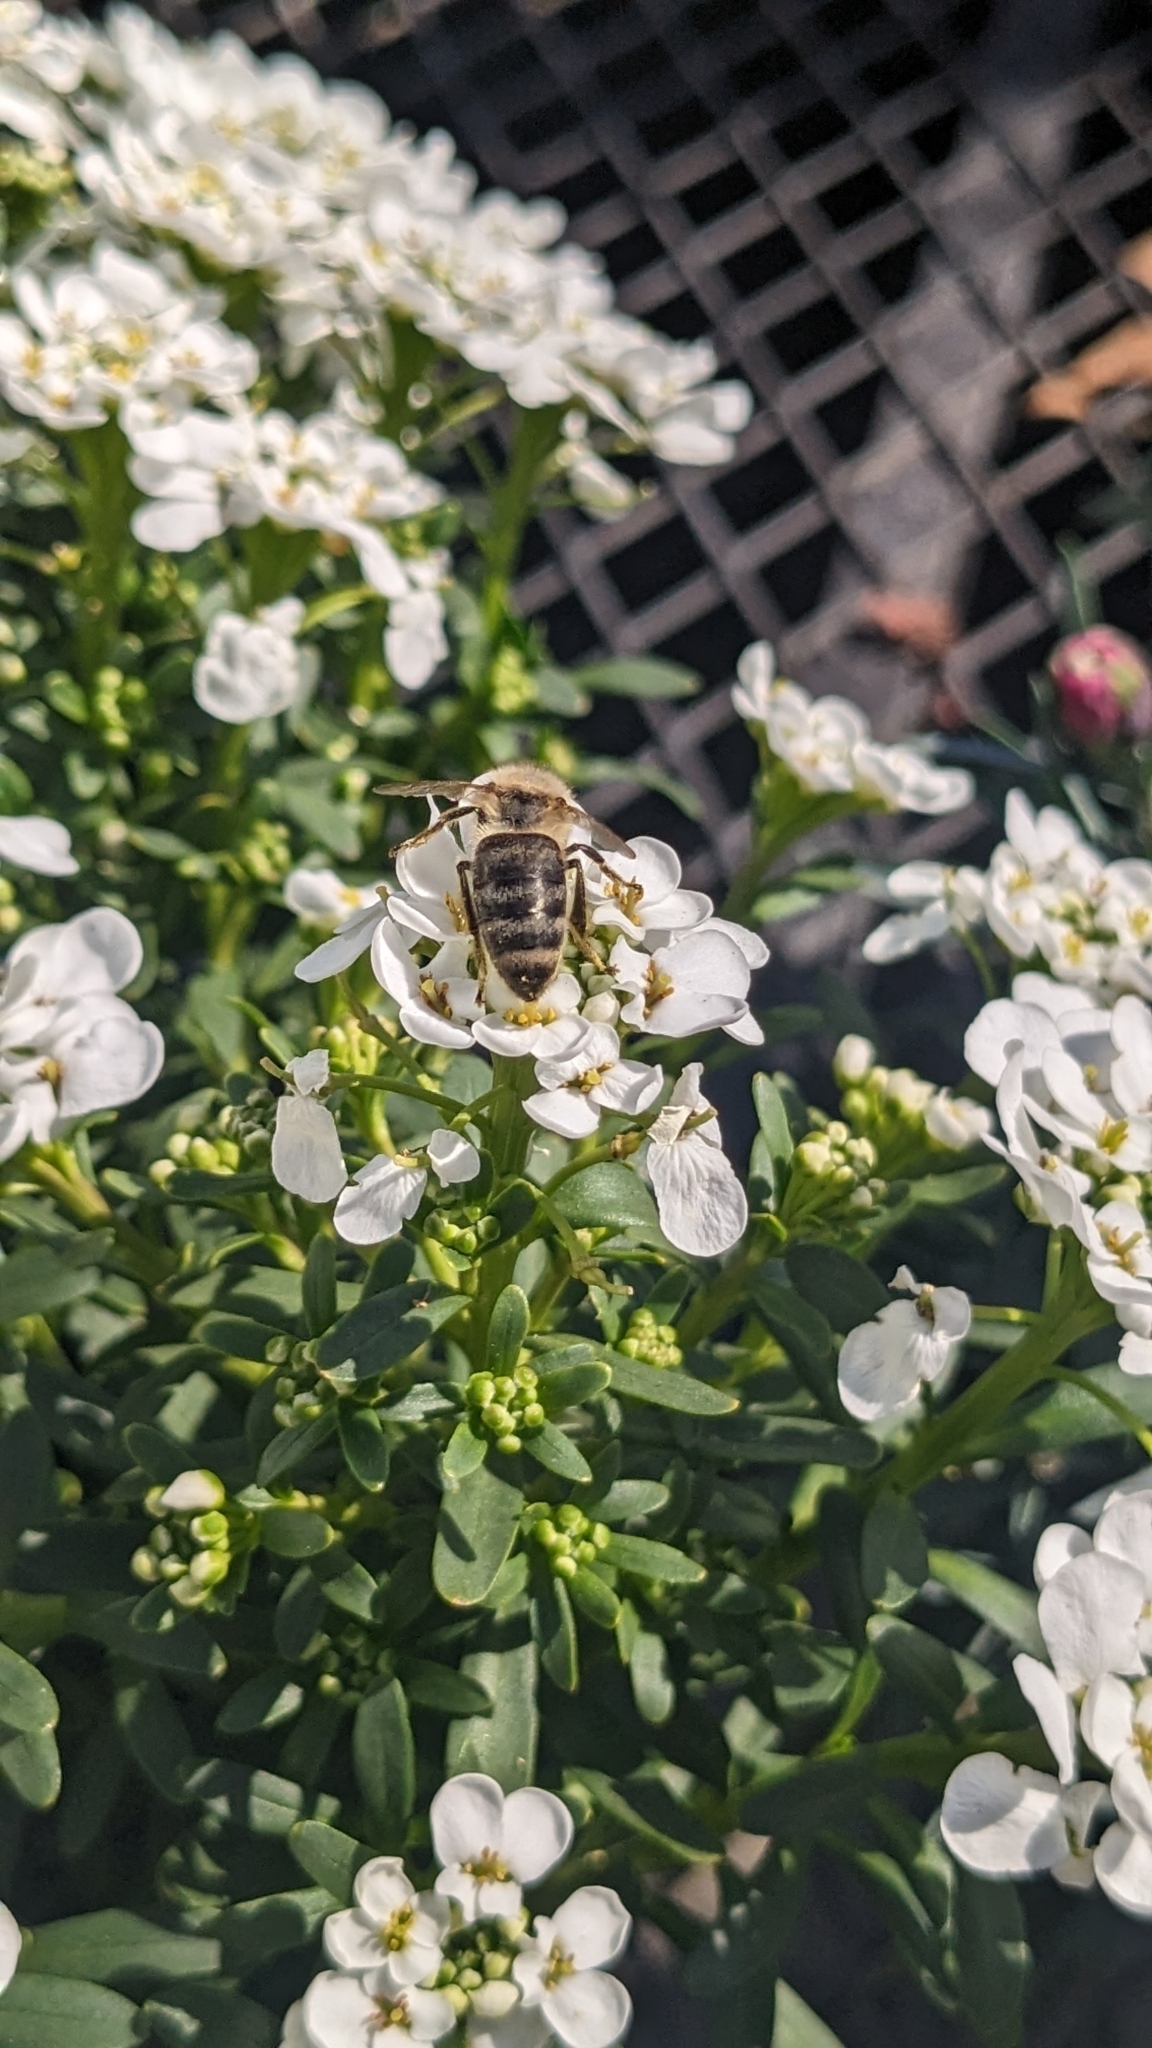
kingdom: Animalia
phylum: Arthropoda
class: Insecta
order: Hymenoptera
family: Apidae
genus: Apis
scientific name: Apis mellifera
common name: Honey bee
